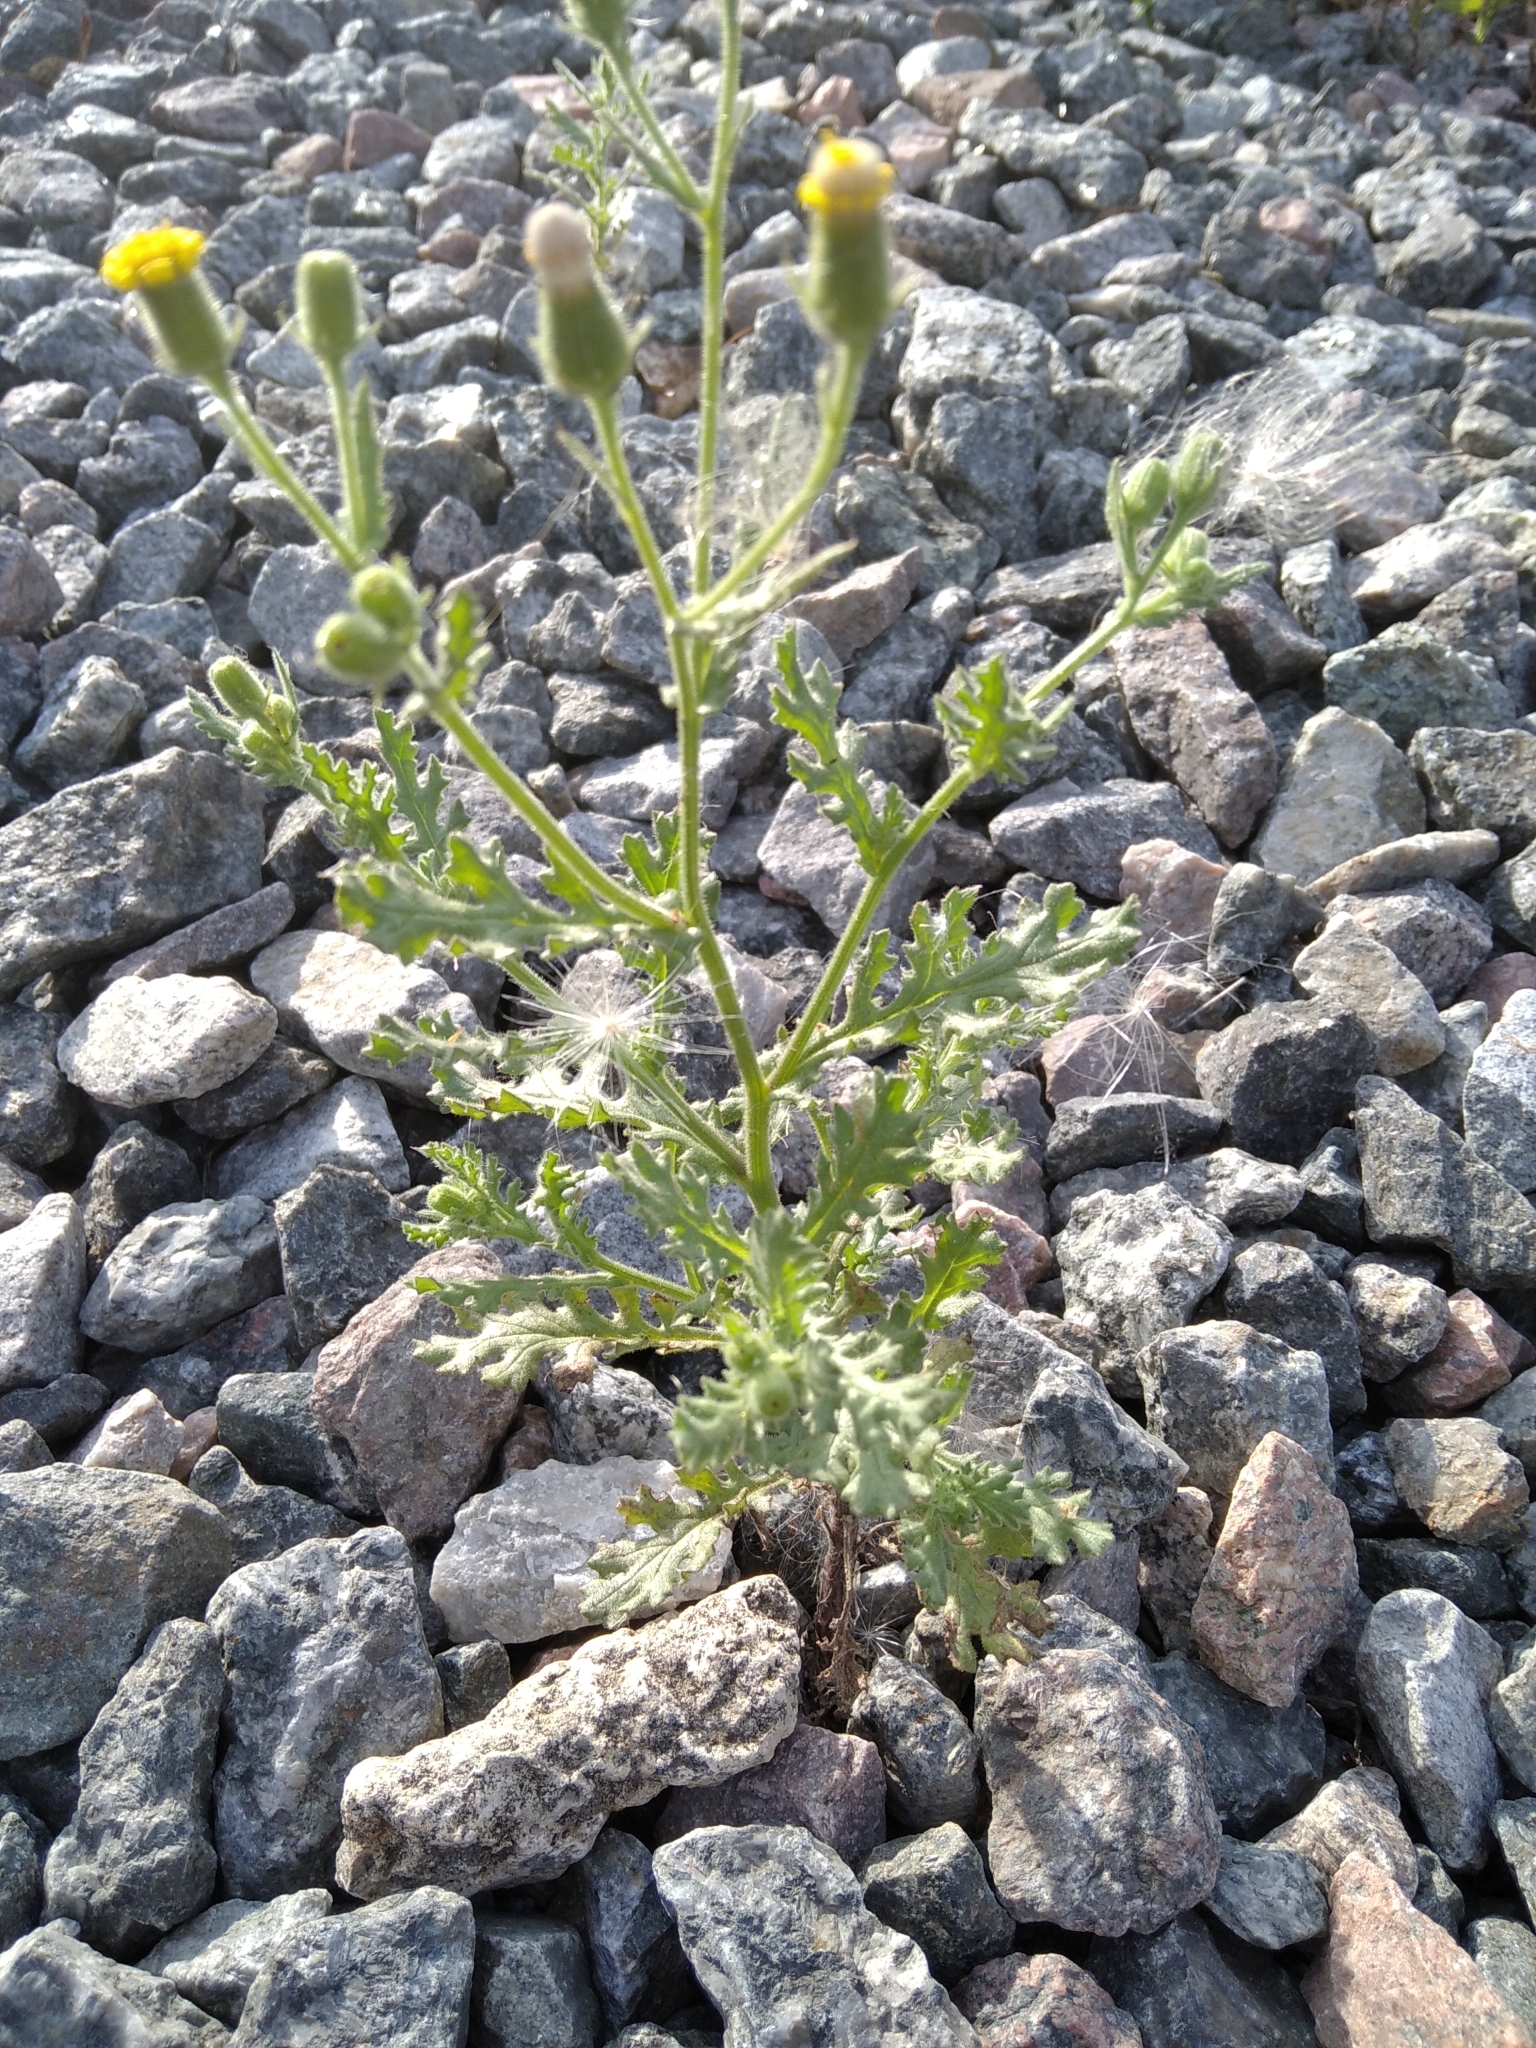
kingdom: Plantae
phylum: Tracheophyta
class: Magnoliopsida
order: Asterales
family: Asteraceae
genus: Senecio
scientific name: Senecio viscosus
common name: Sticky groundsel
